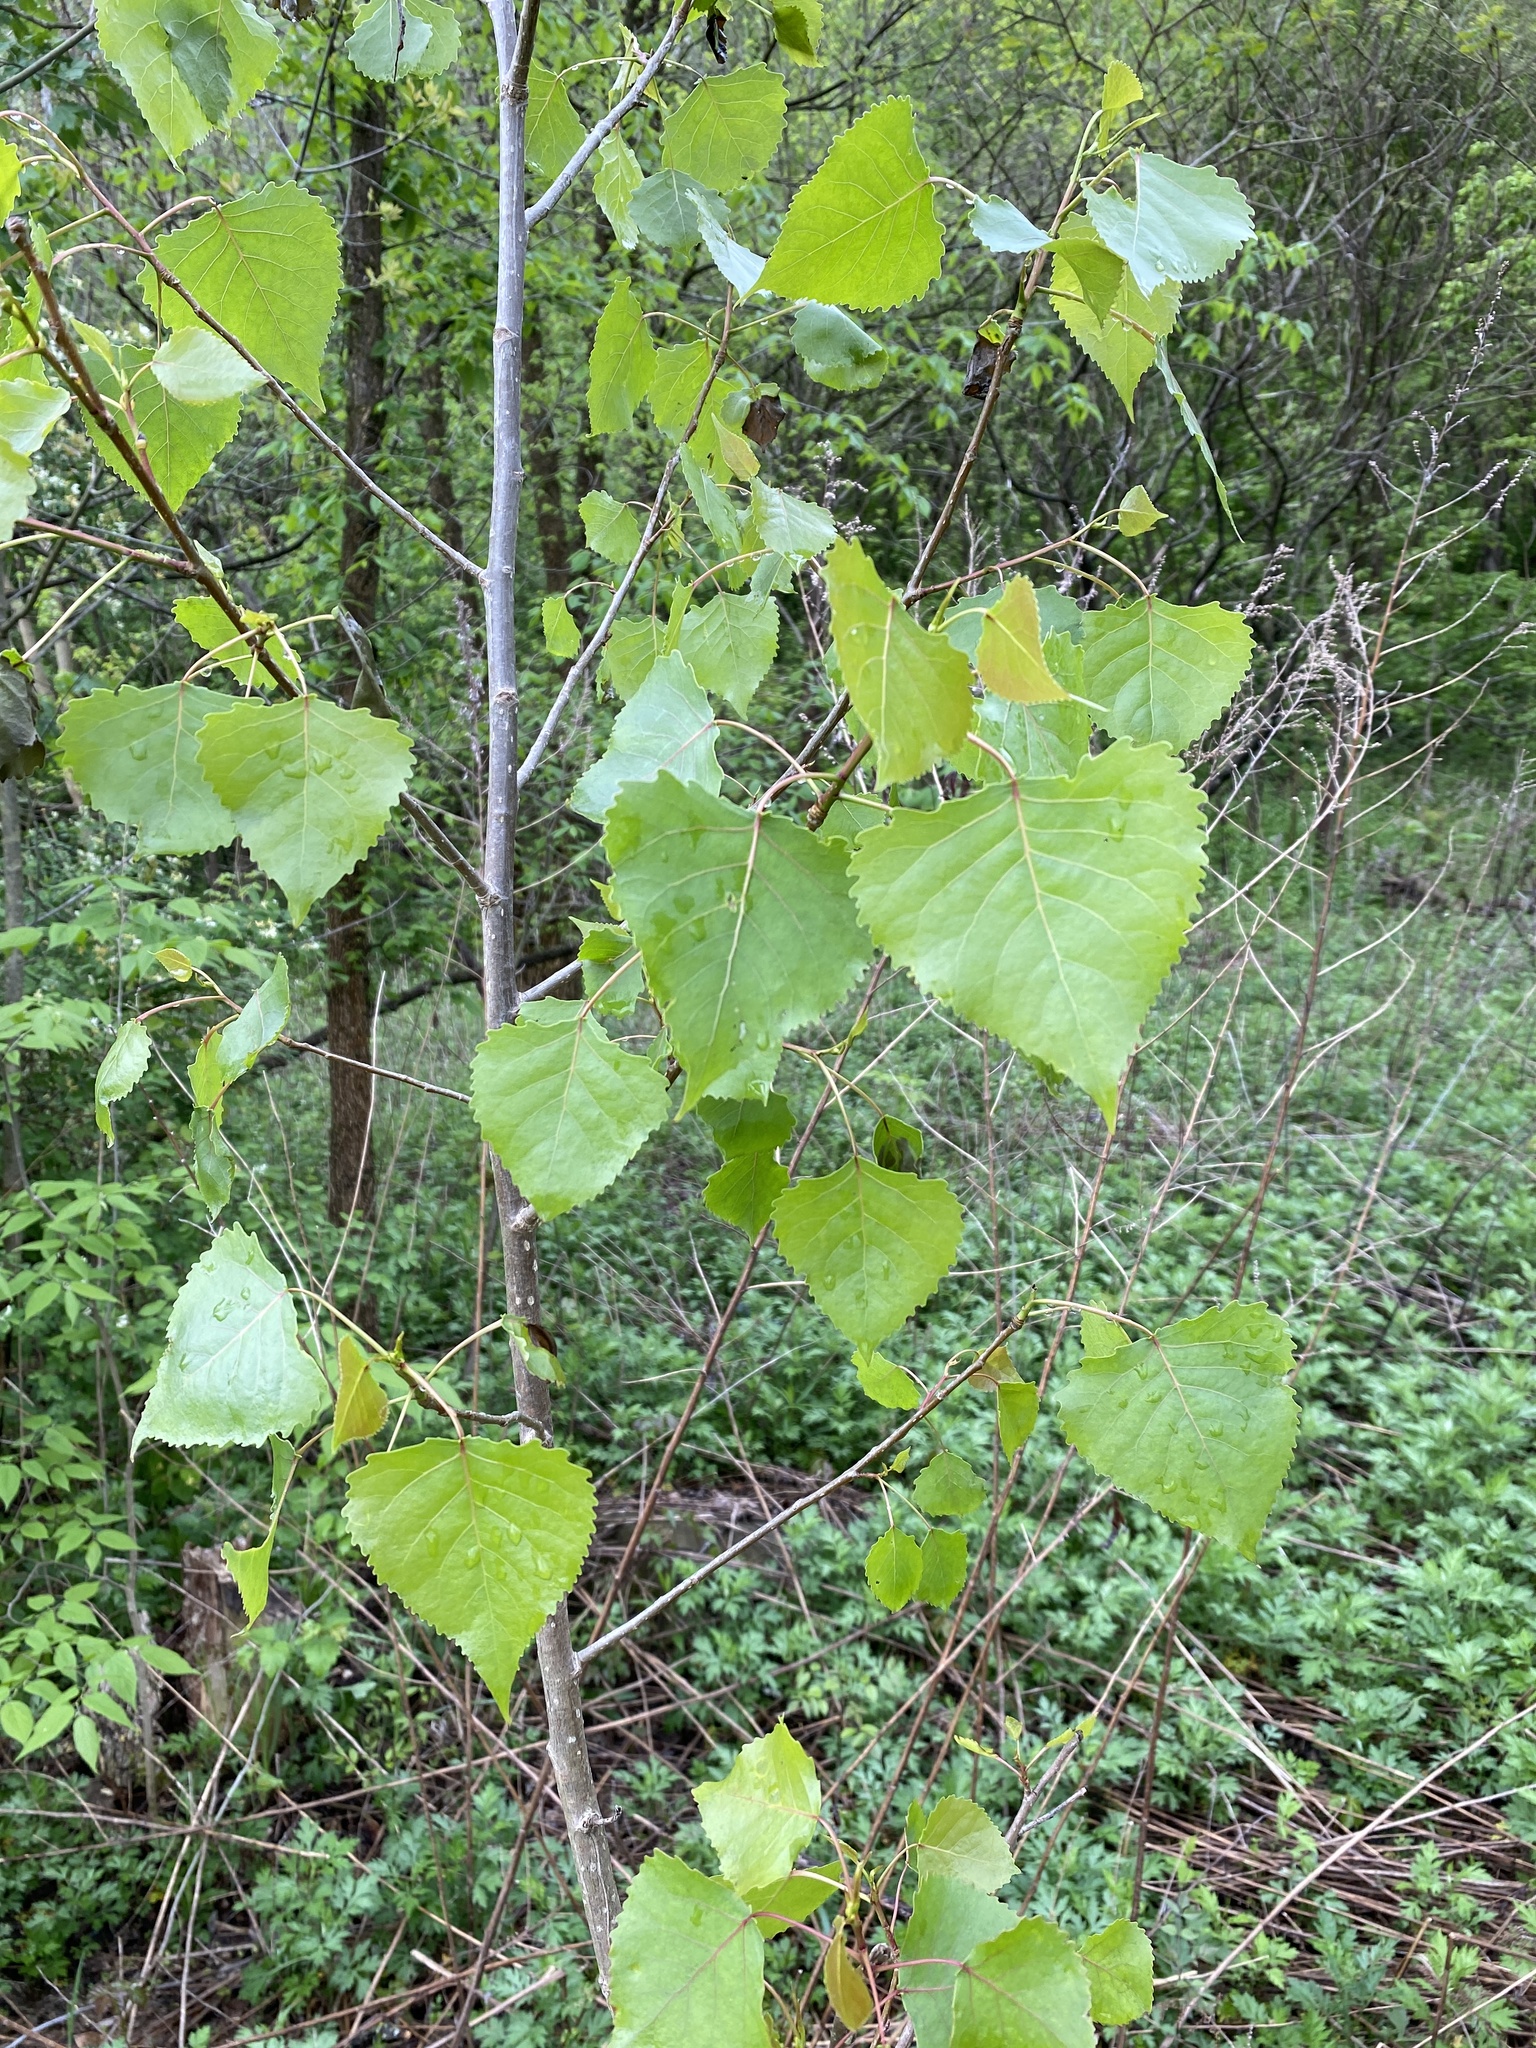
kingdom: Plantae
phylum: Tracheophyta
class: Magnoliopsida
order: Malpighiales
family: Salicaceae
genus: Populus
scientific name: Populus deltoides
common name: Eastern cottonwood
